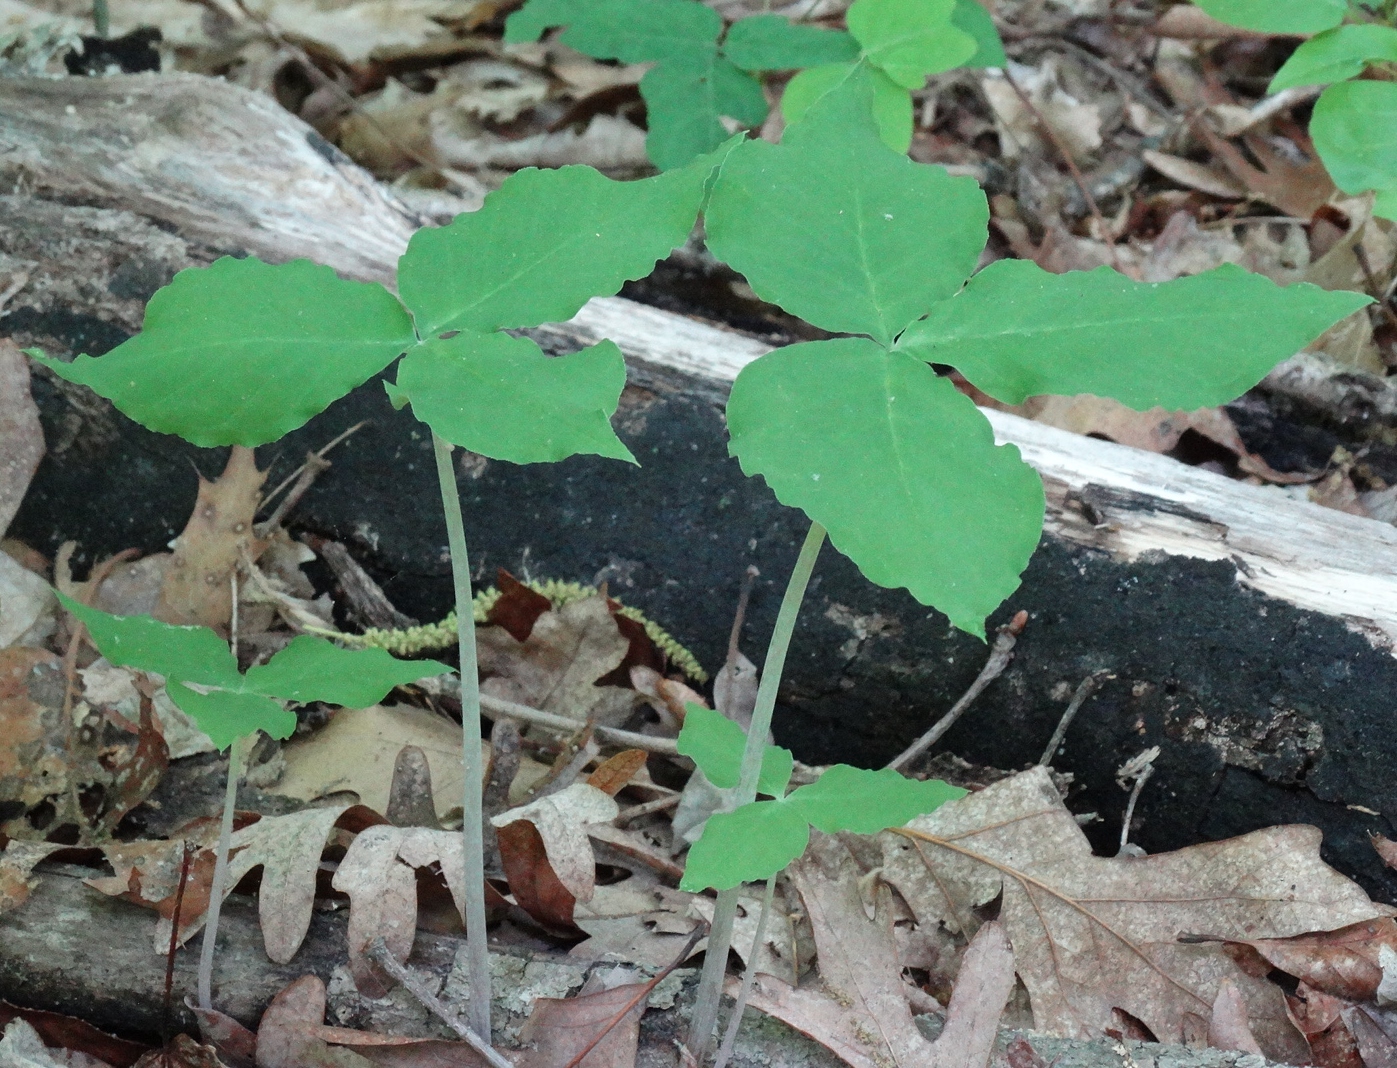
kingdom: Plantae
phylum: Tracheophyta
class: Liliopsida
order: Alismatales
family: Araceae
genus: Arisaema
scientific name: Arisaema triphyllum
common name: Jack-in-the-pulpit
